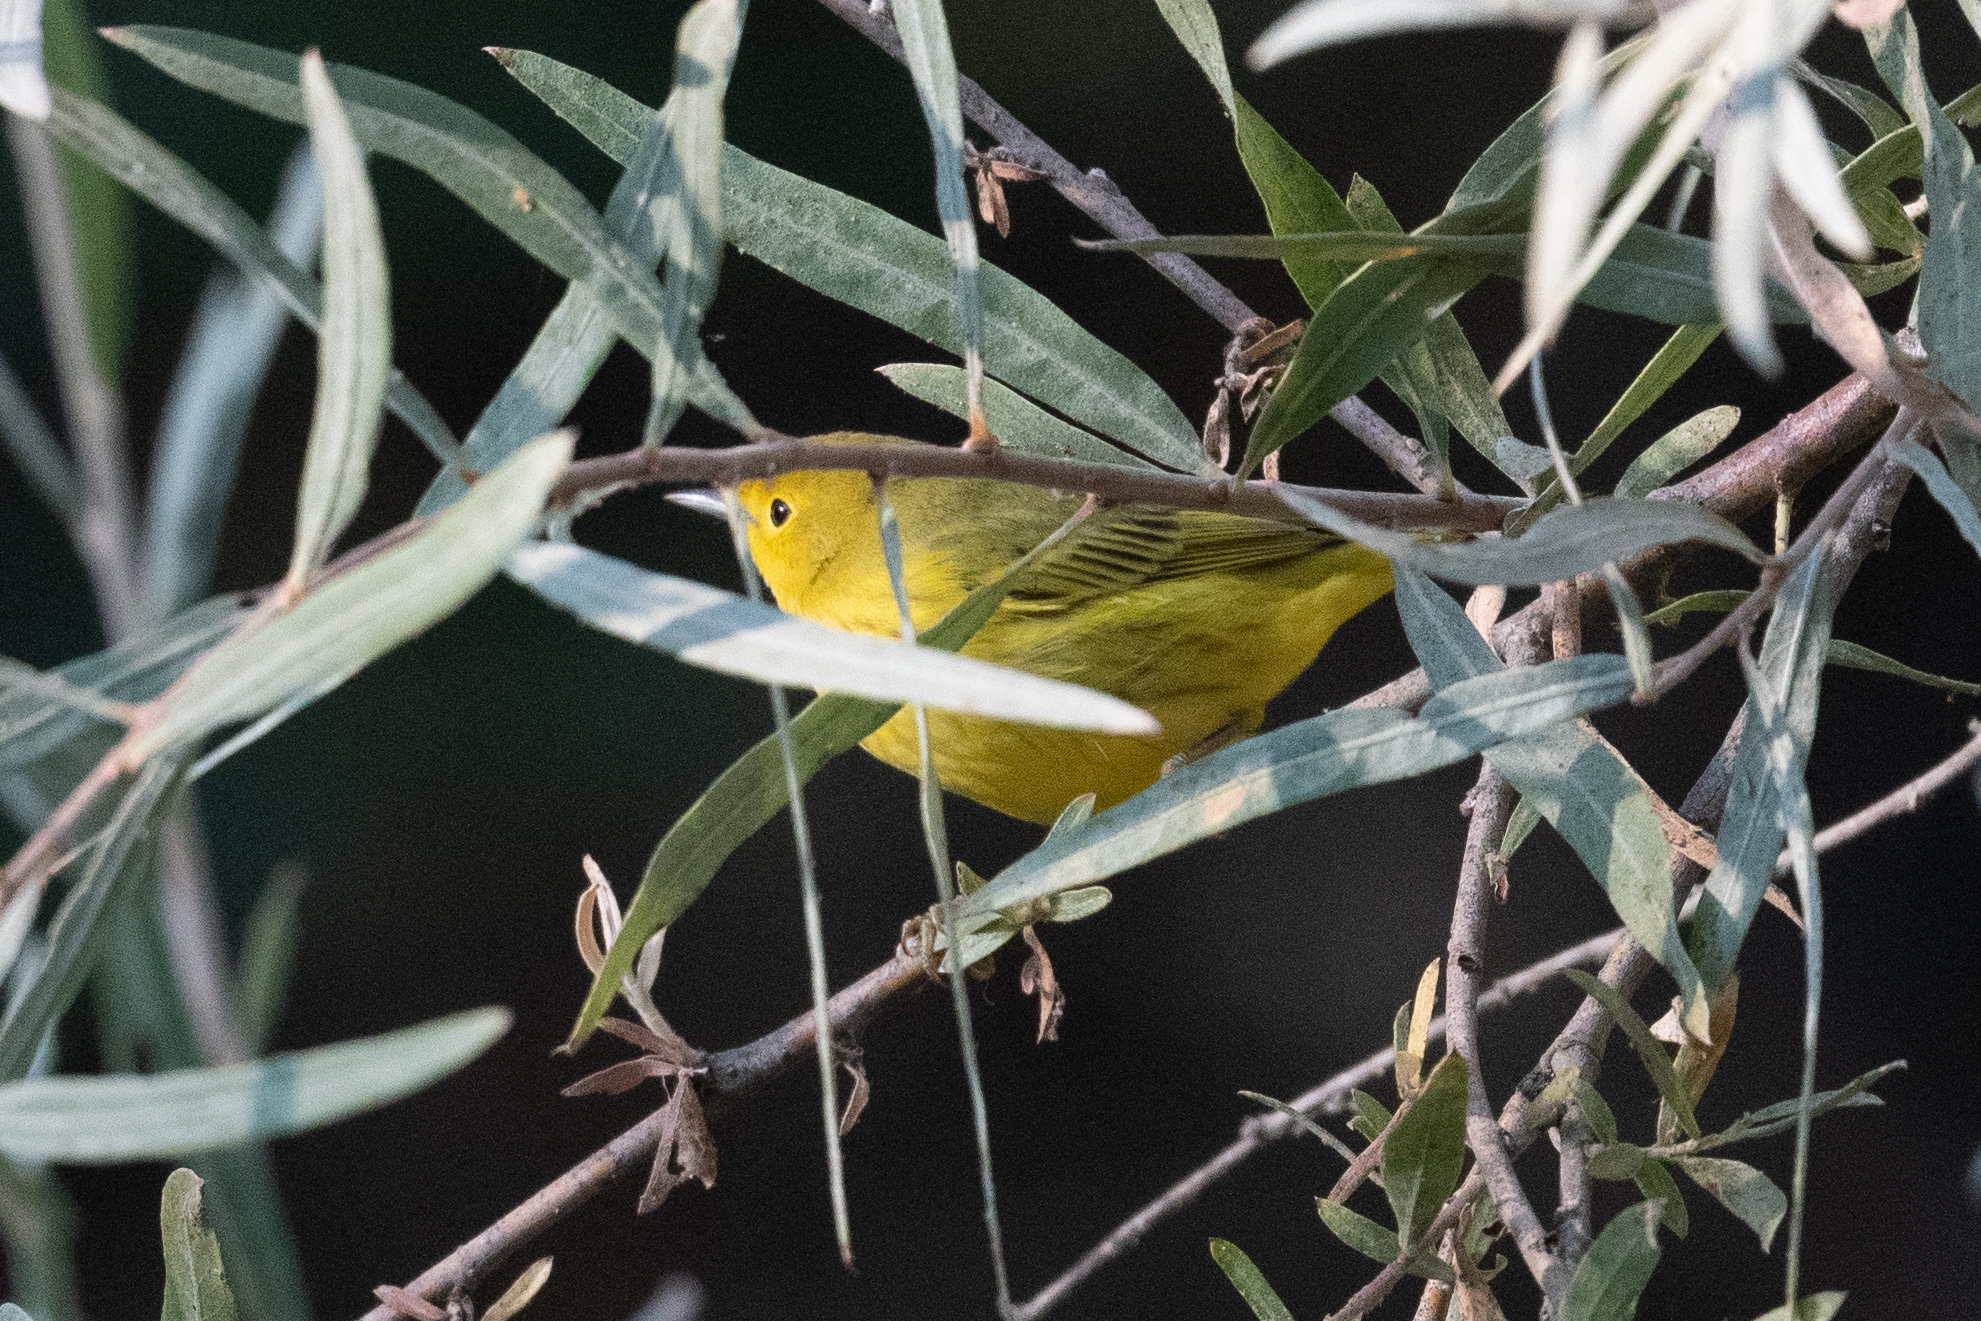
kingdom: Animalia
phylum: Chordata
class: Aves
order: Passeriformes
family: Parulidae
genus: Setophaga
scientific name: Setophaga petechia
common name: Yellow warbler
